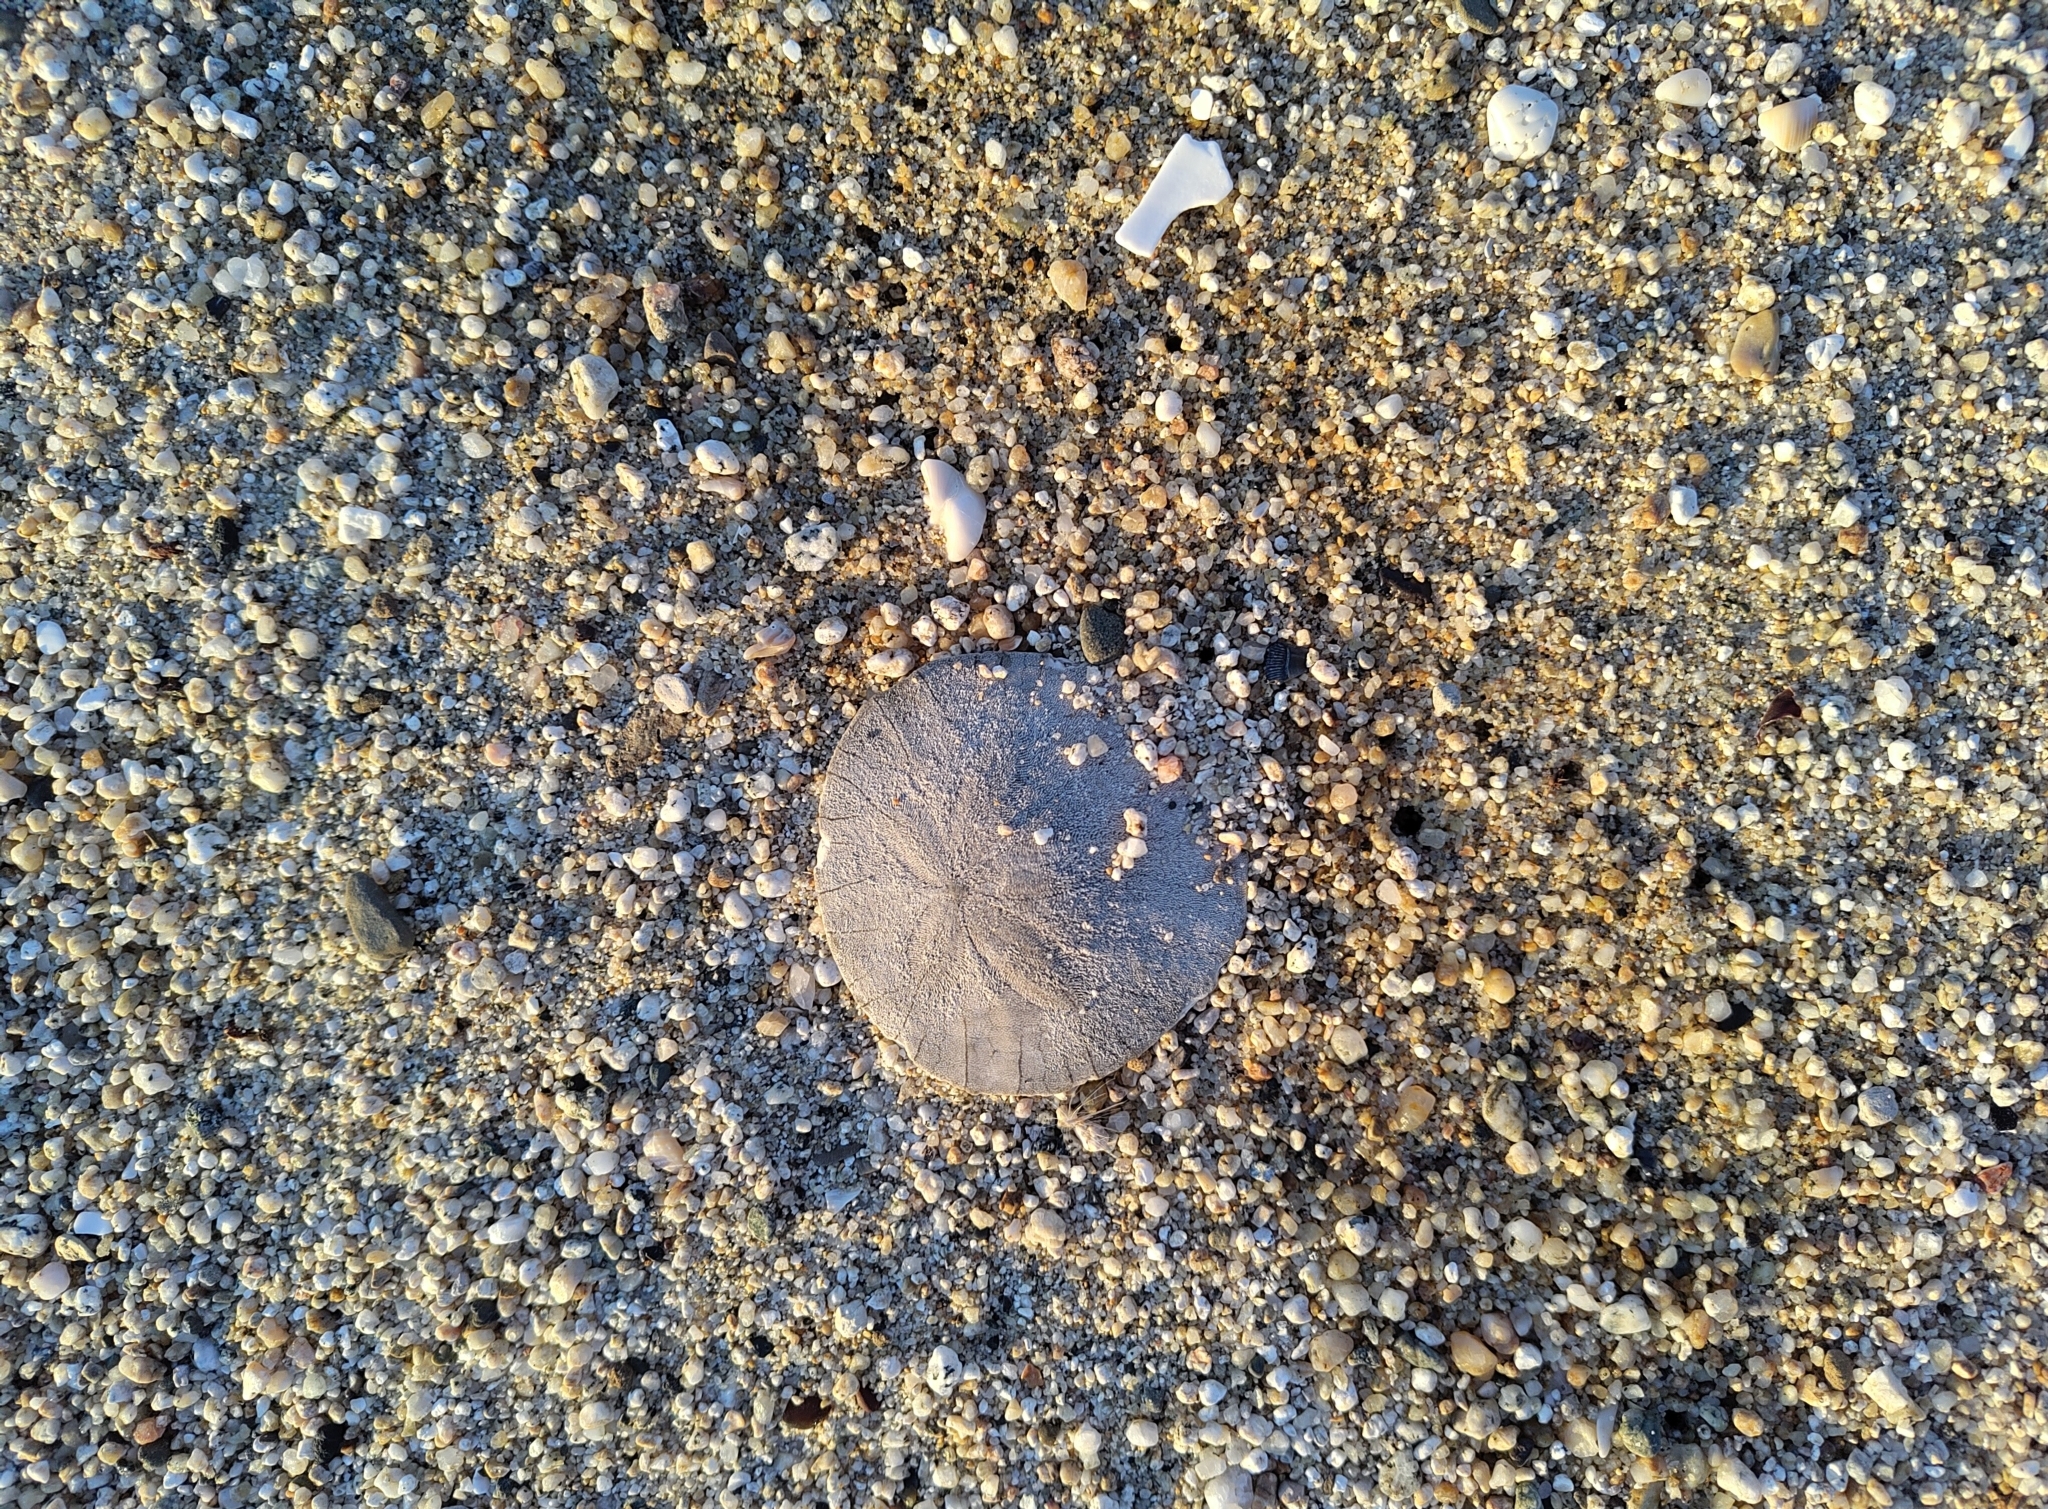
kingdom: Animalia
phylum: Echinodermata
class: Echinoidea
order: Echinolampadacea
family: Dendrasteridae
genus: Dendraster
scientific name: Dendraster excentricus
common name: Eccentric sand dollar sea urchin
